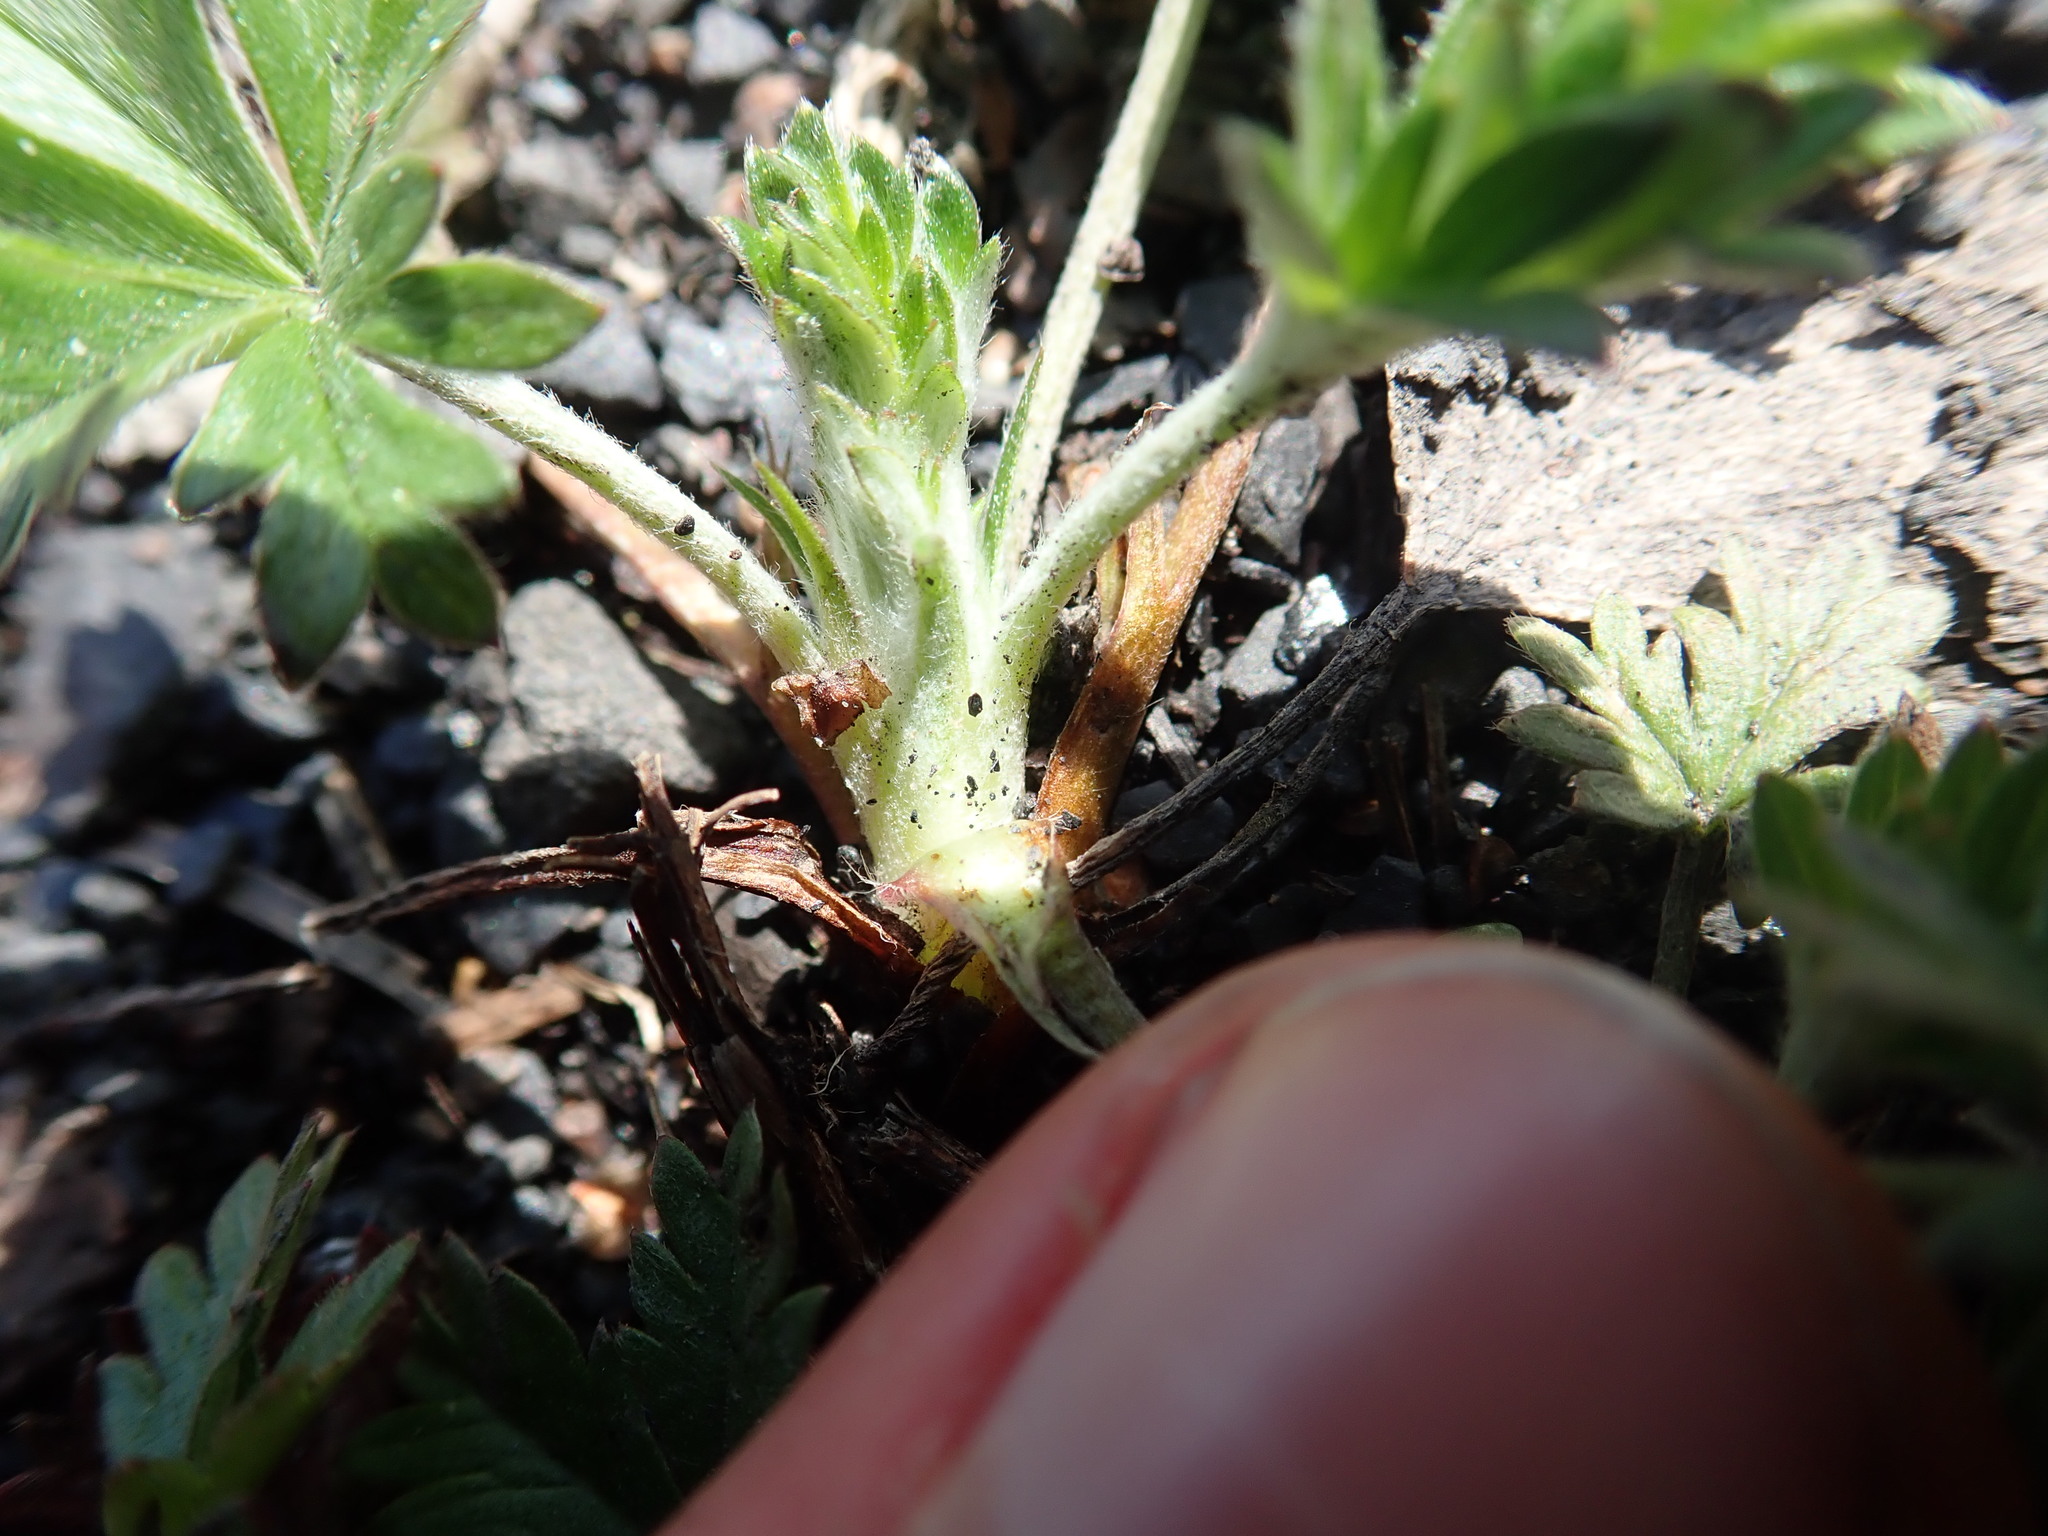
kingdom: Plantae
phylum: Tracheophyta
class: Magnoliopsida
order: Rosales
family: Rosaceae
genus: Potentilla
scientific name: Potentilla argentea
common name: Hoary cinquefoil
